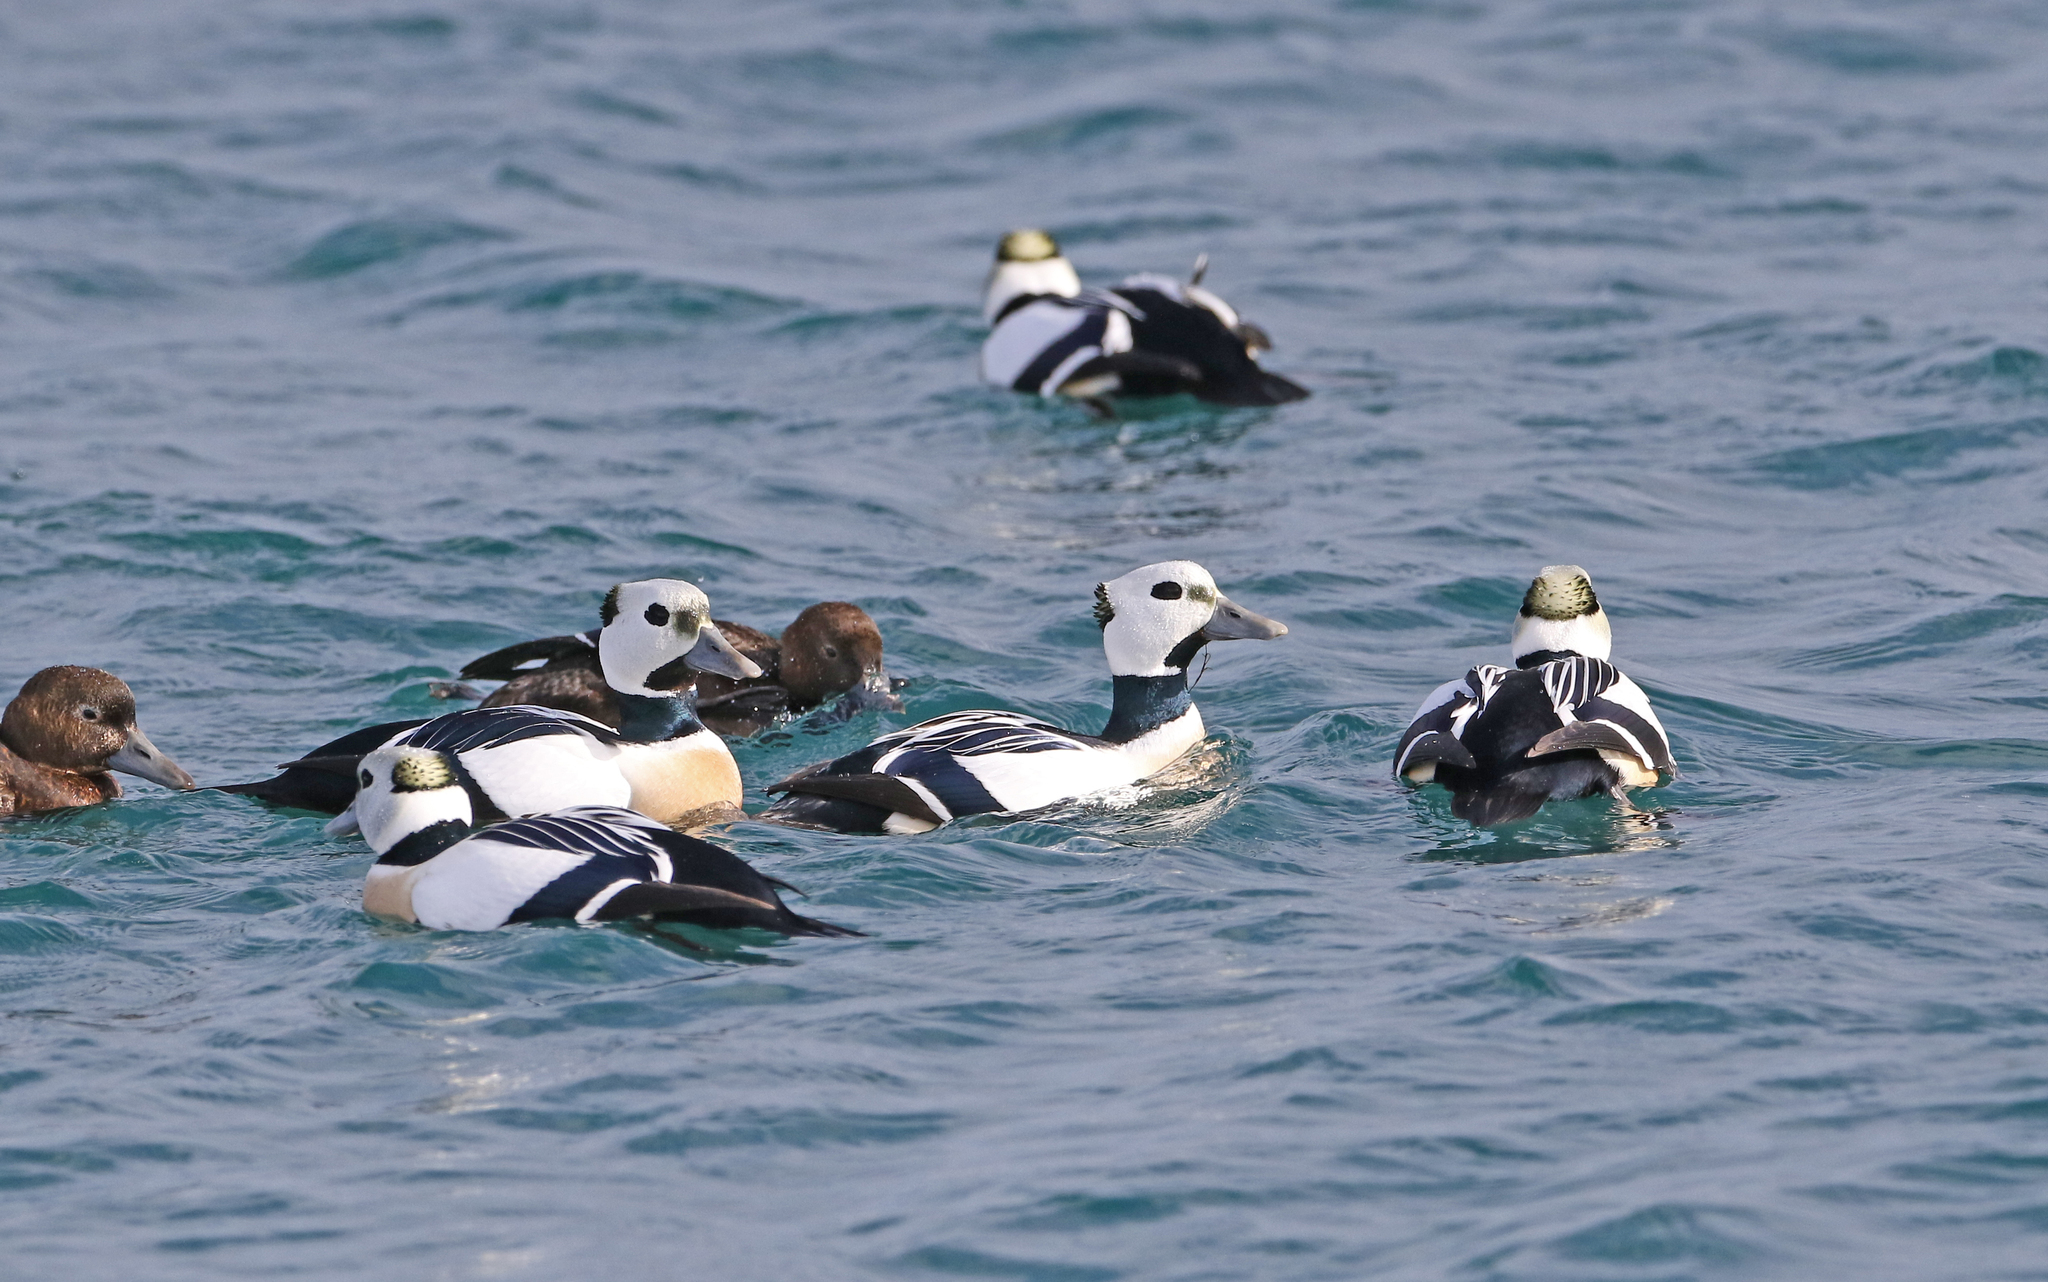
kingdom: Animalia
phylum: Chordata
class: Aves
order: Anseriformes
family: Anatidae
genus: Polysticta
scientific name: Polysticta stelleri
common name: Steller's eider
